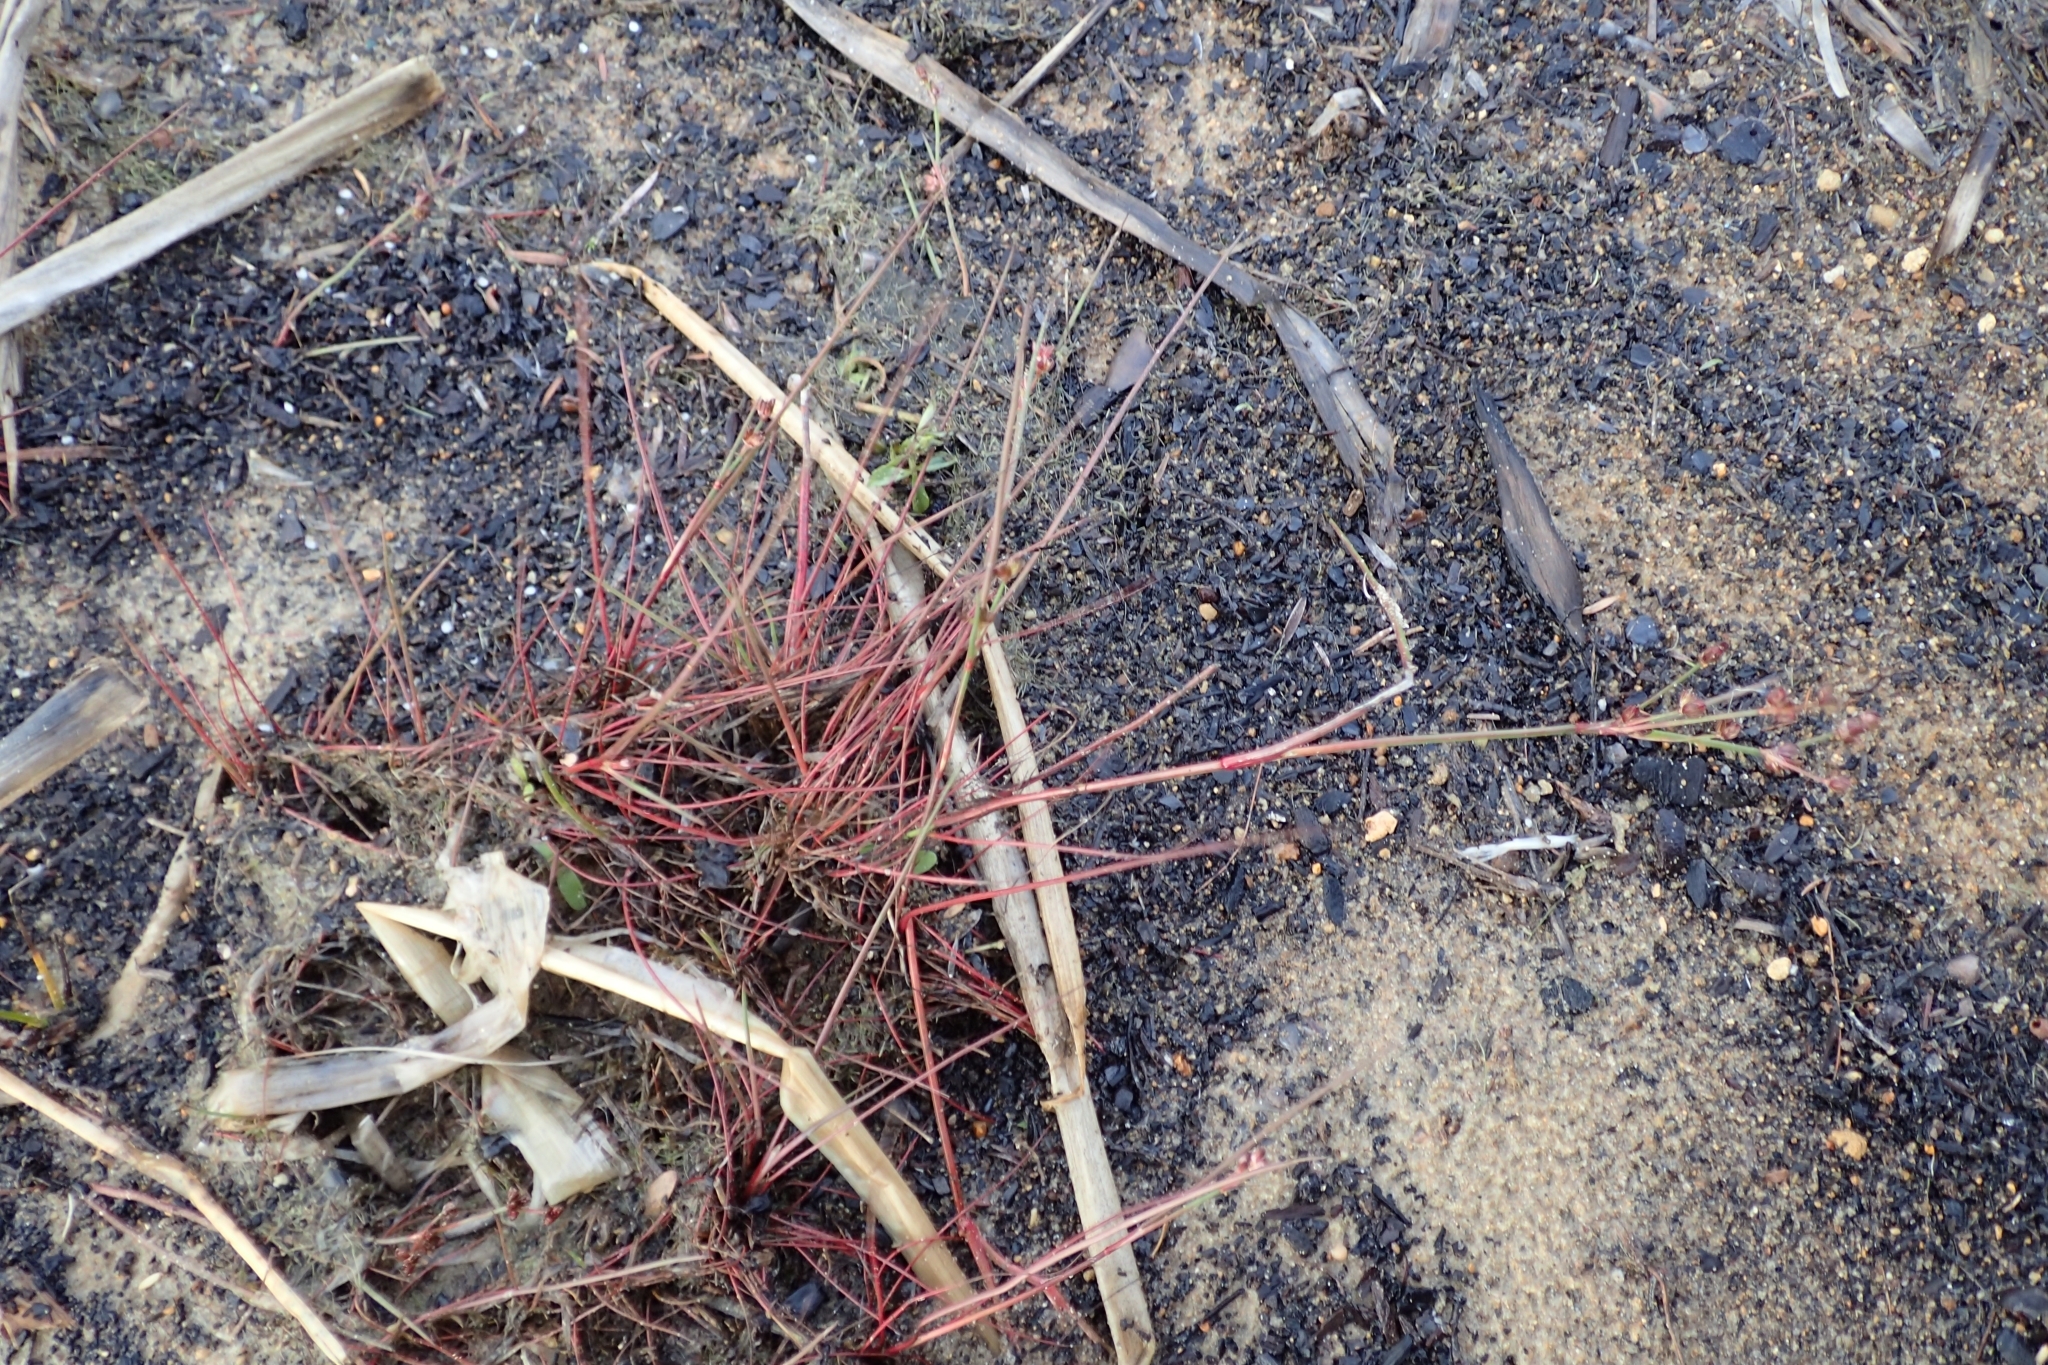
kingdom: Plantae
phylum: Tracheophyta
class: Liliopsida
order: Poales
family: Juncaceae
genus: Juncus
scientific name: Juncus bulbosus
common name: Bulbous rush
